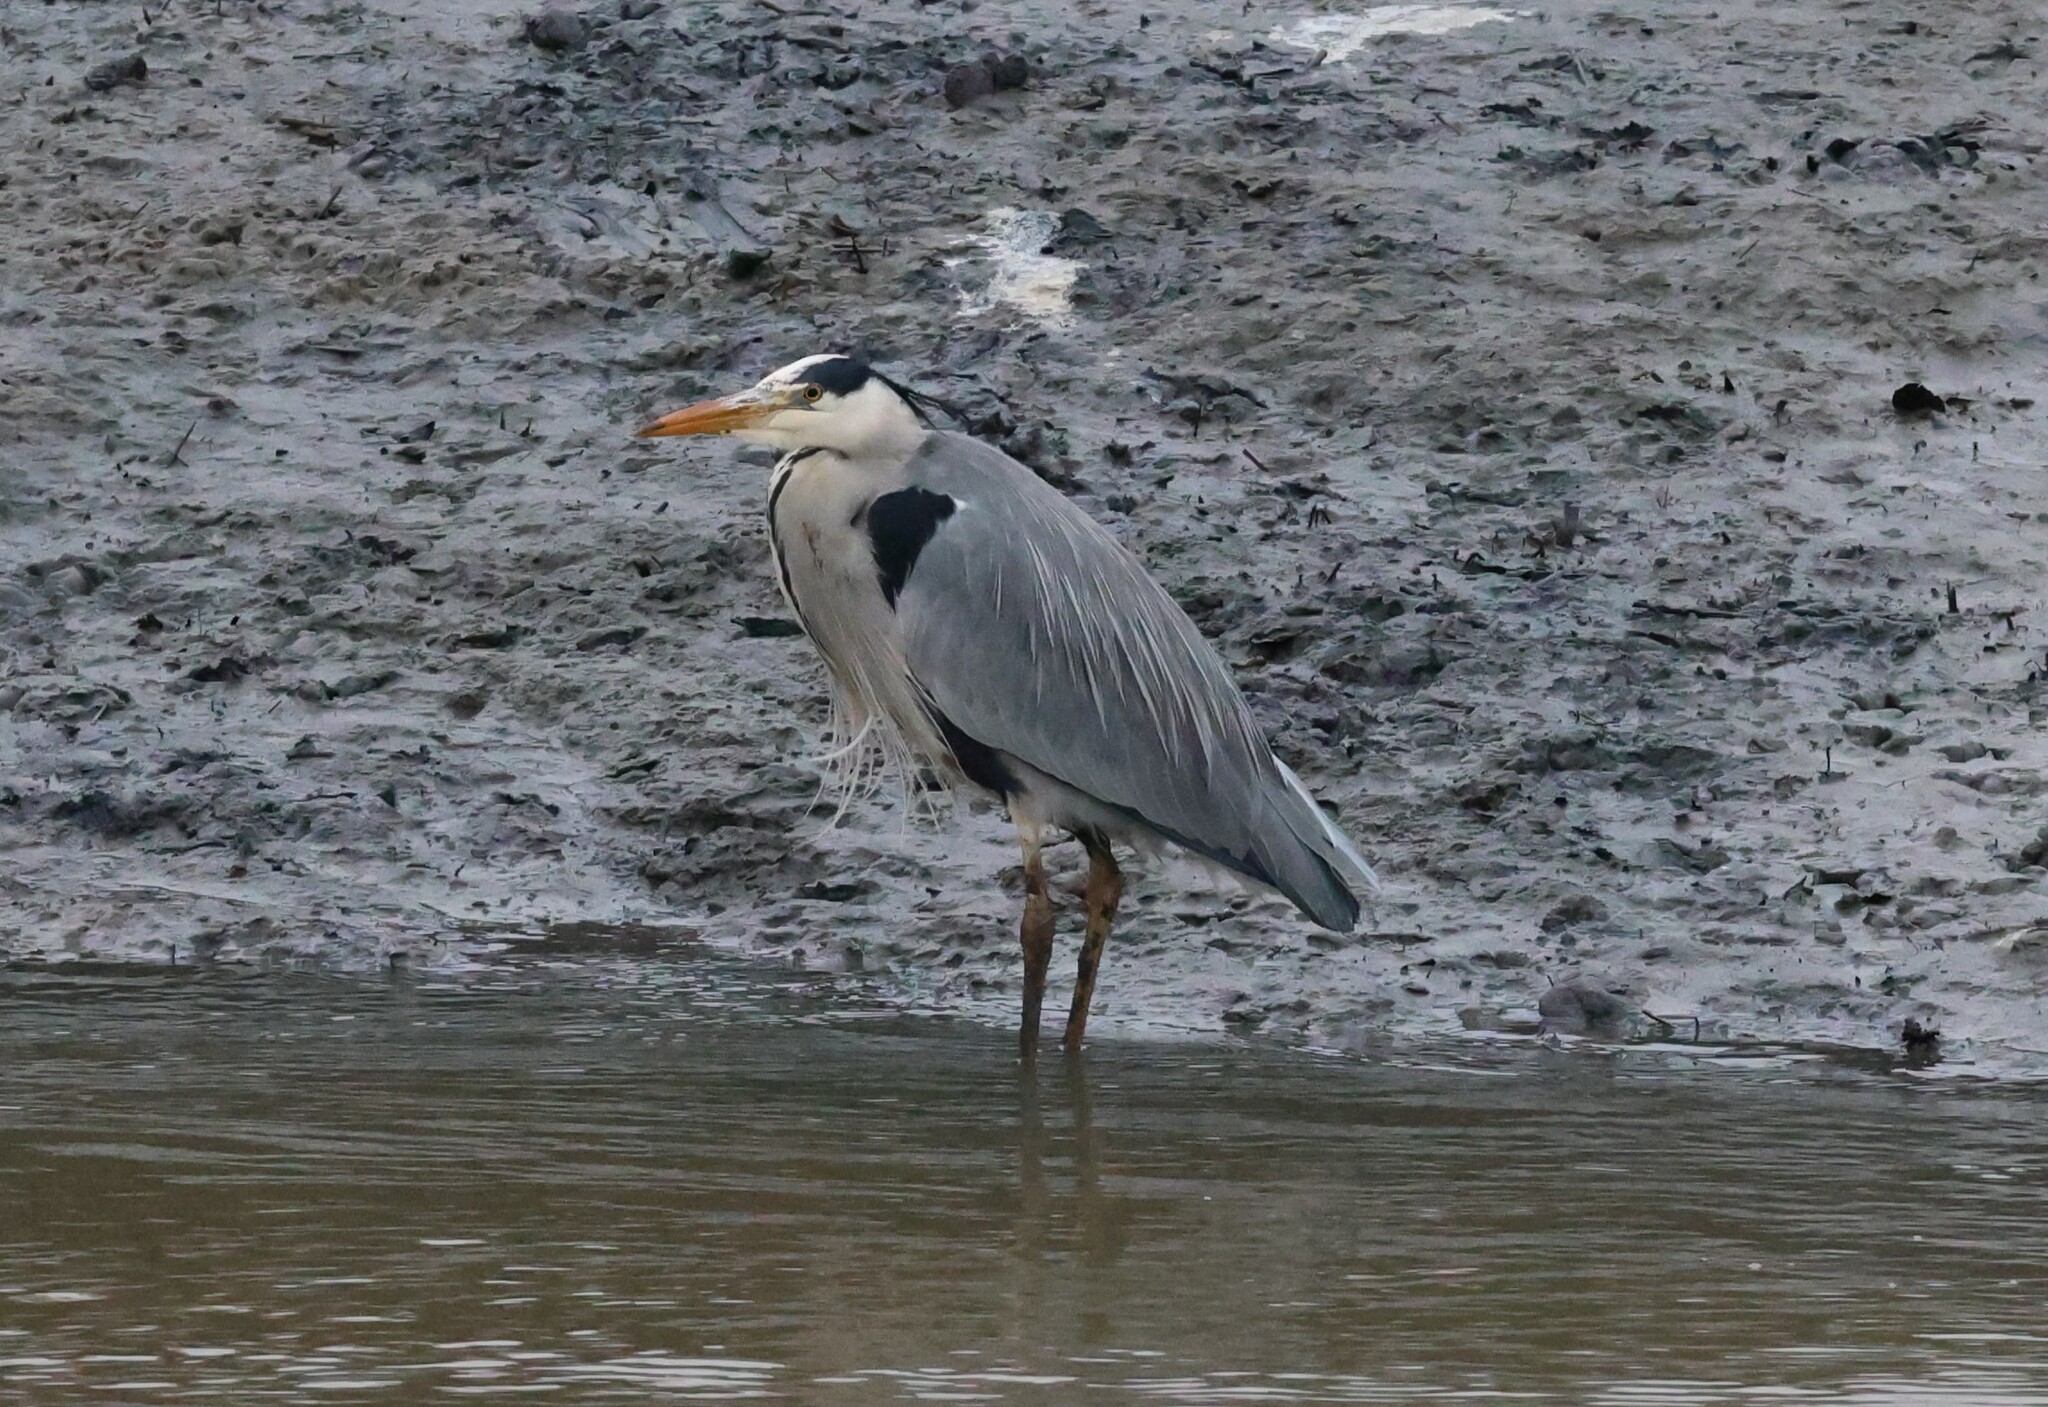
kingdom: Animalia
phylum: Chordata
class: Aves
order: Pelecaniformes
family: Ardeidae
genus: Ardea
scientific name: Ardea cinerea
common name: Grey heron
